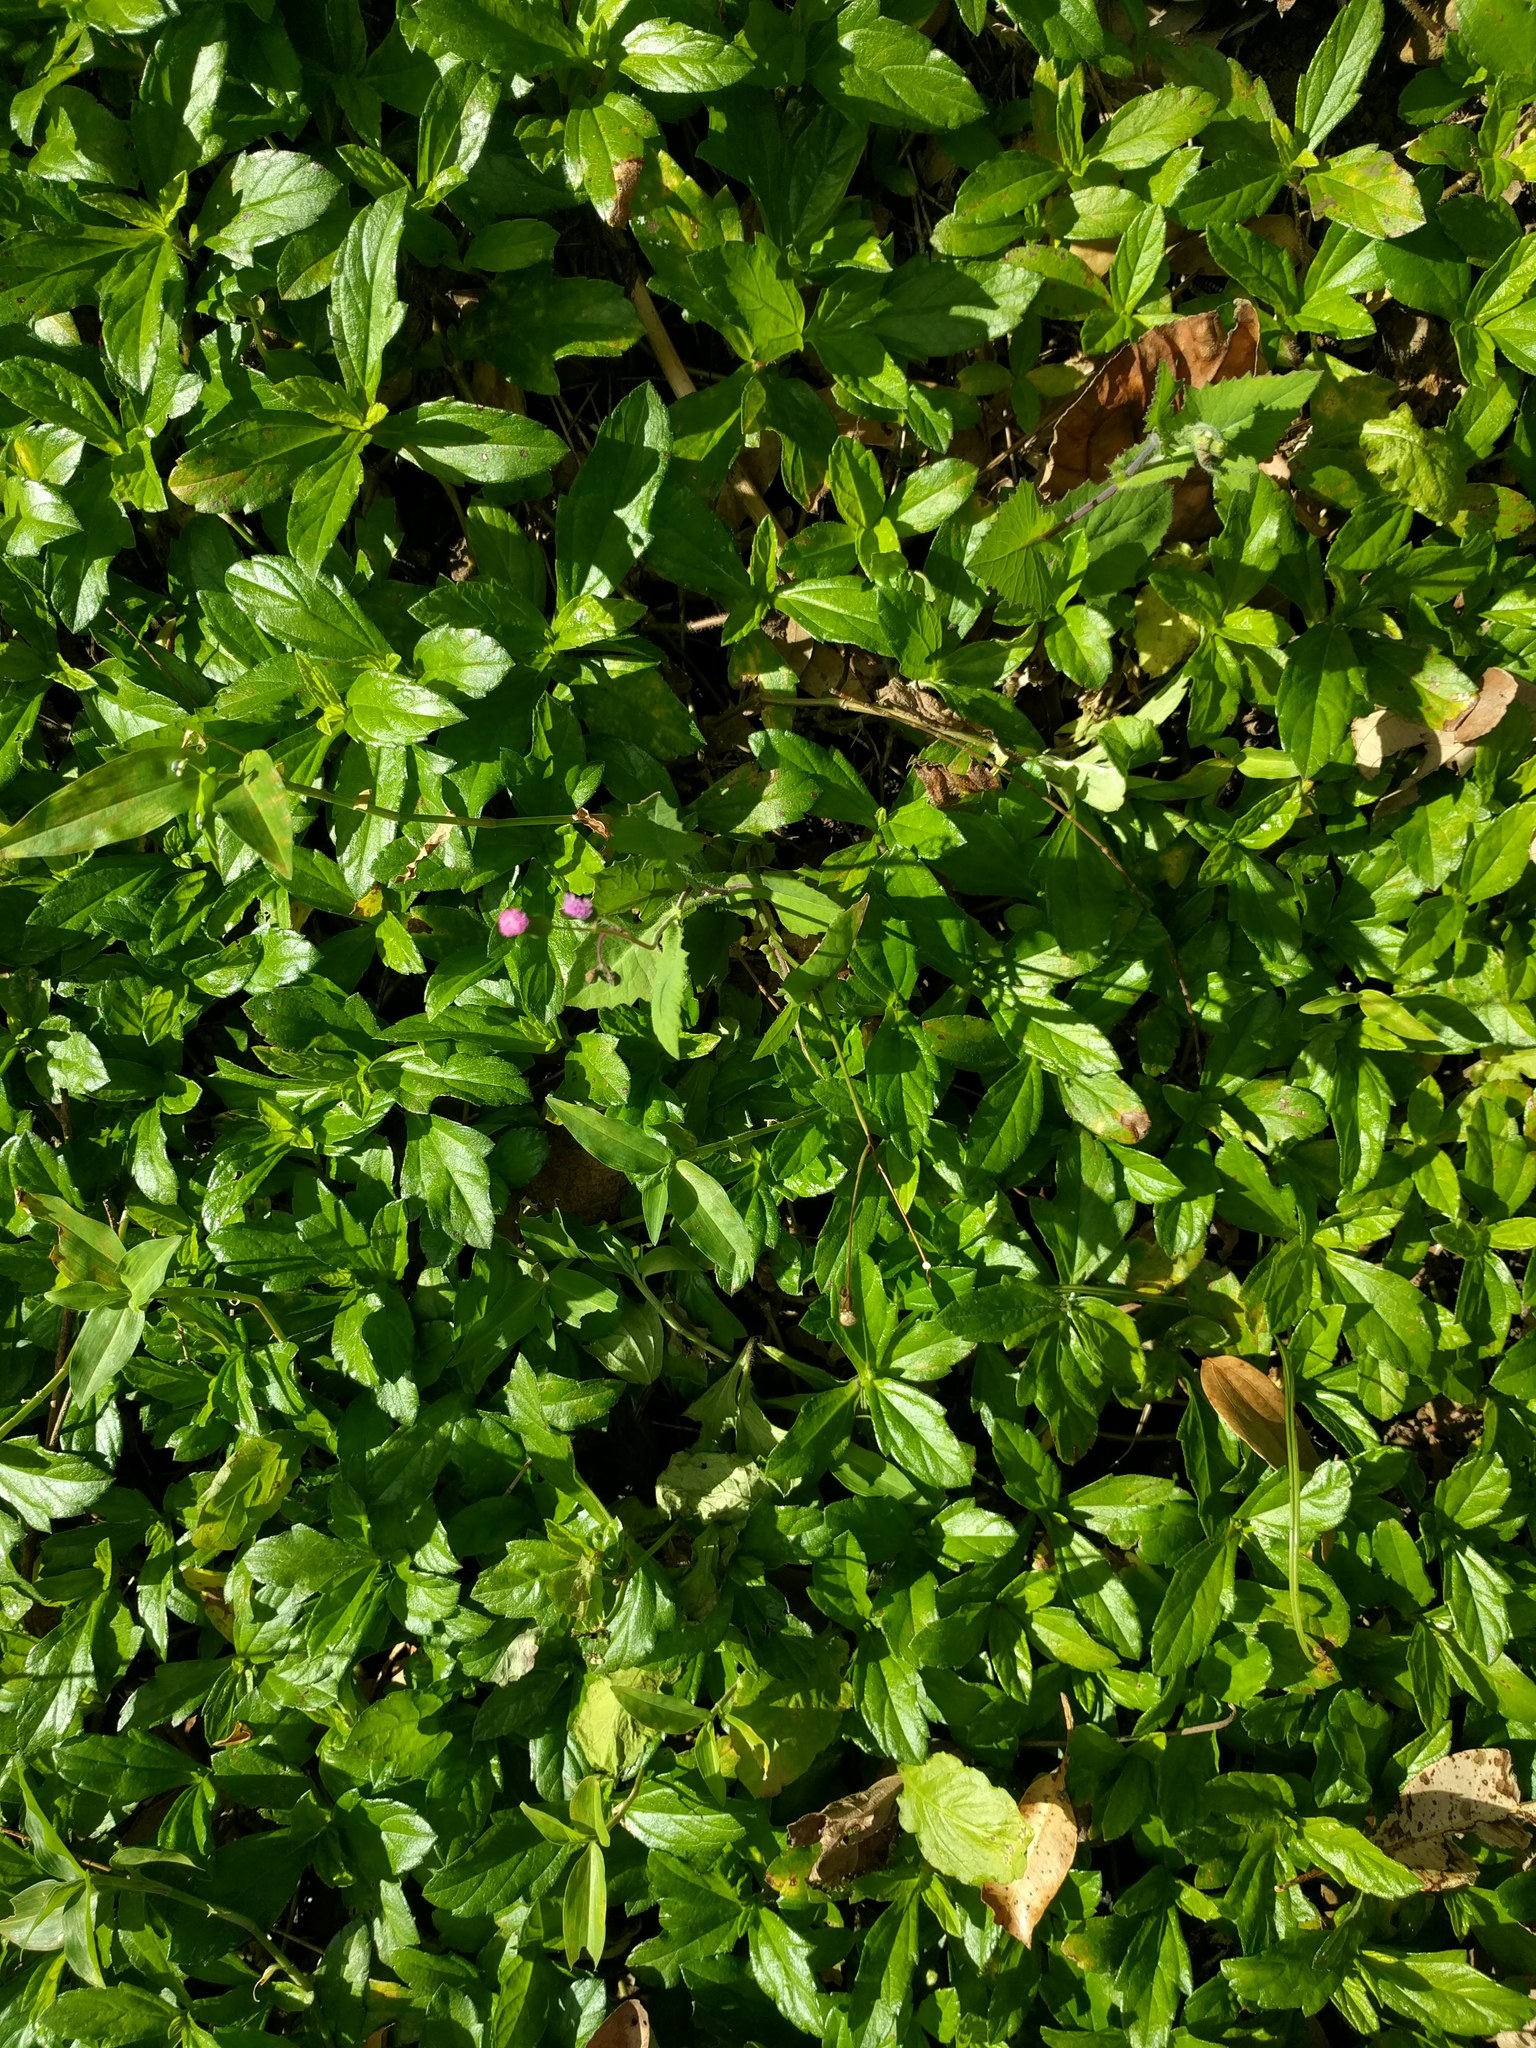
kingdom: Plantae
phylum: Tracheophyta
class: Magnoliopsida
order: Asterales
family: Asteraceae
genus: Emilia
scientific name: Emilia sonchifolia
